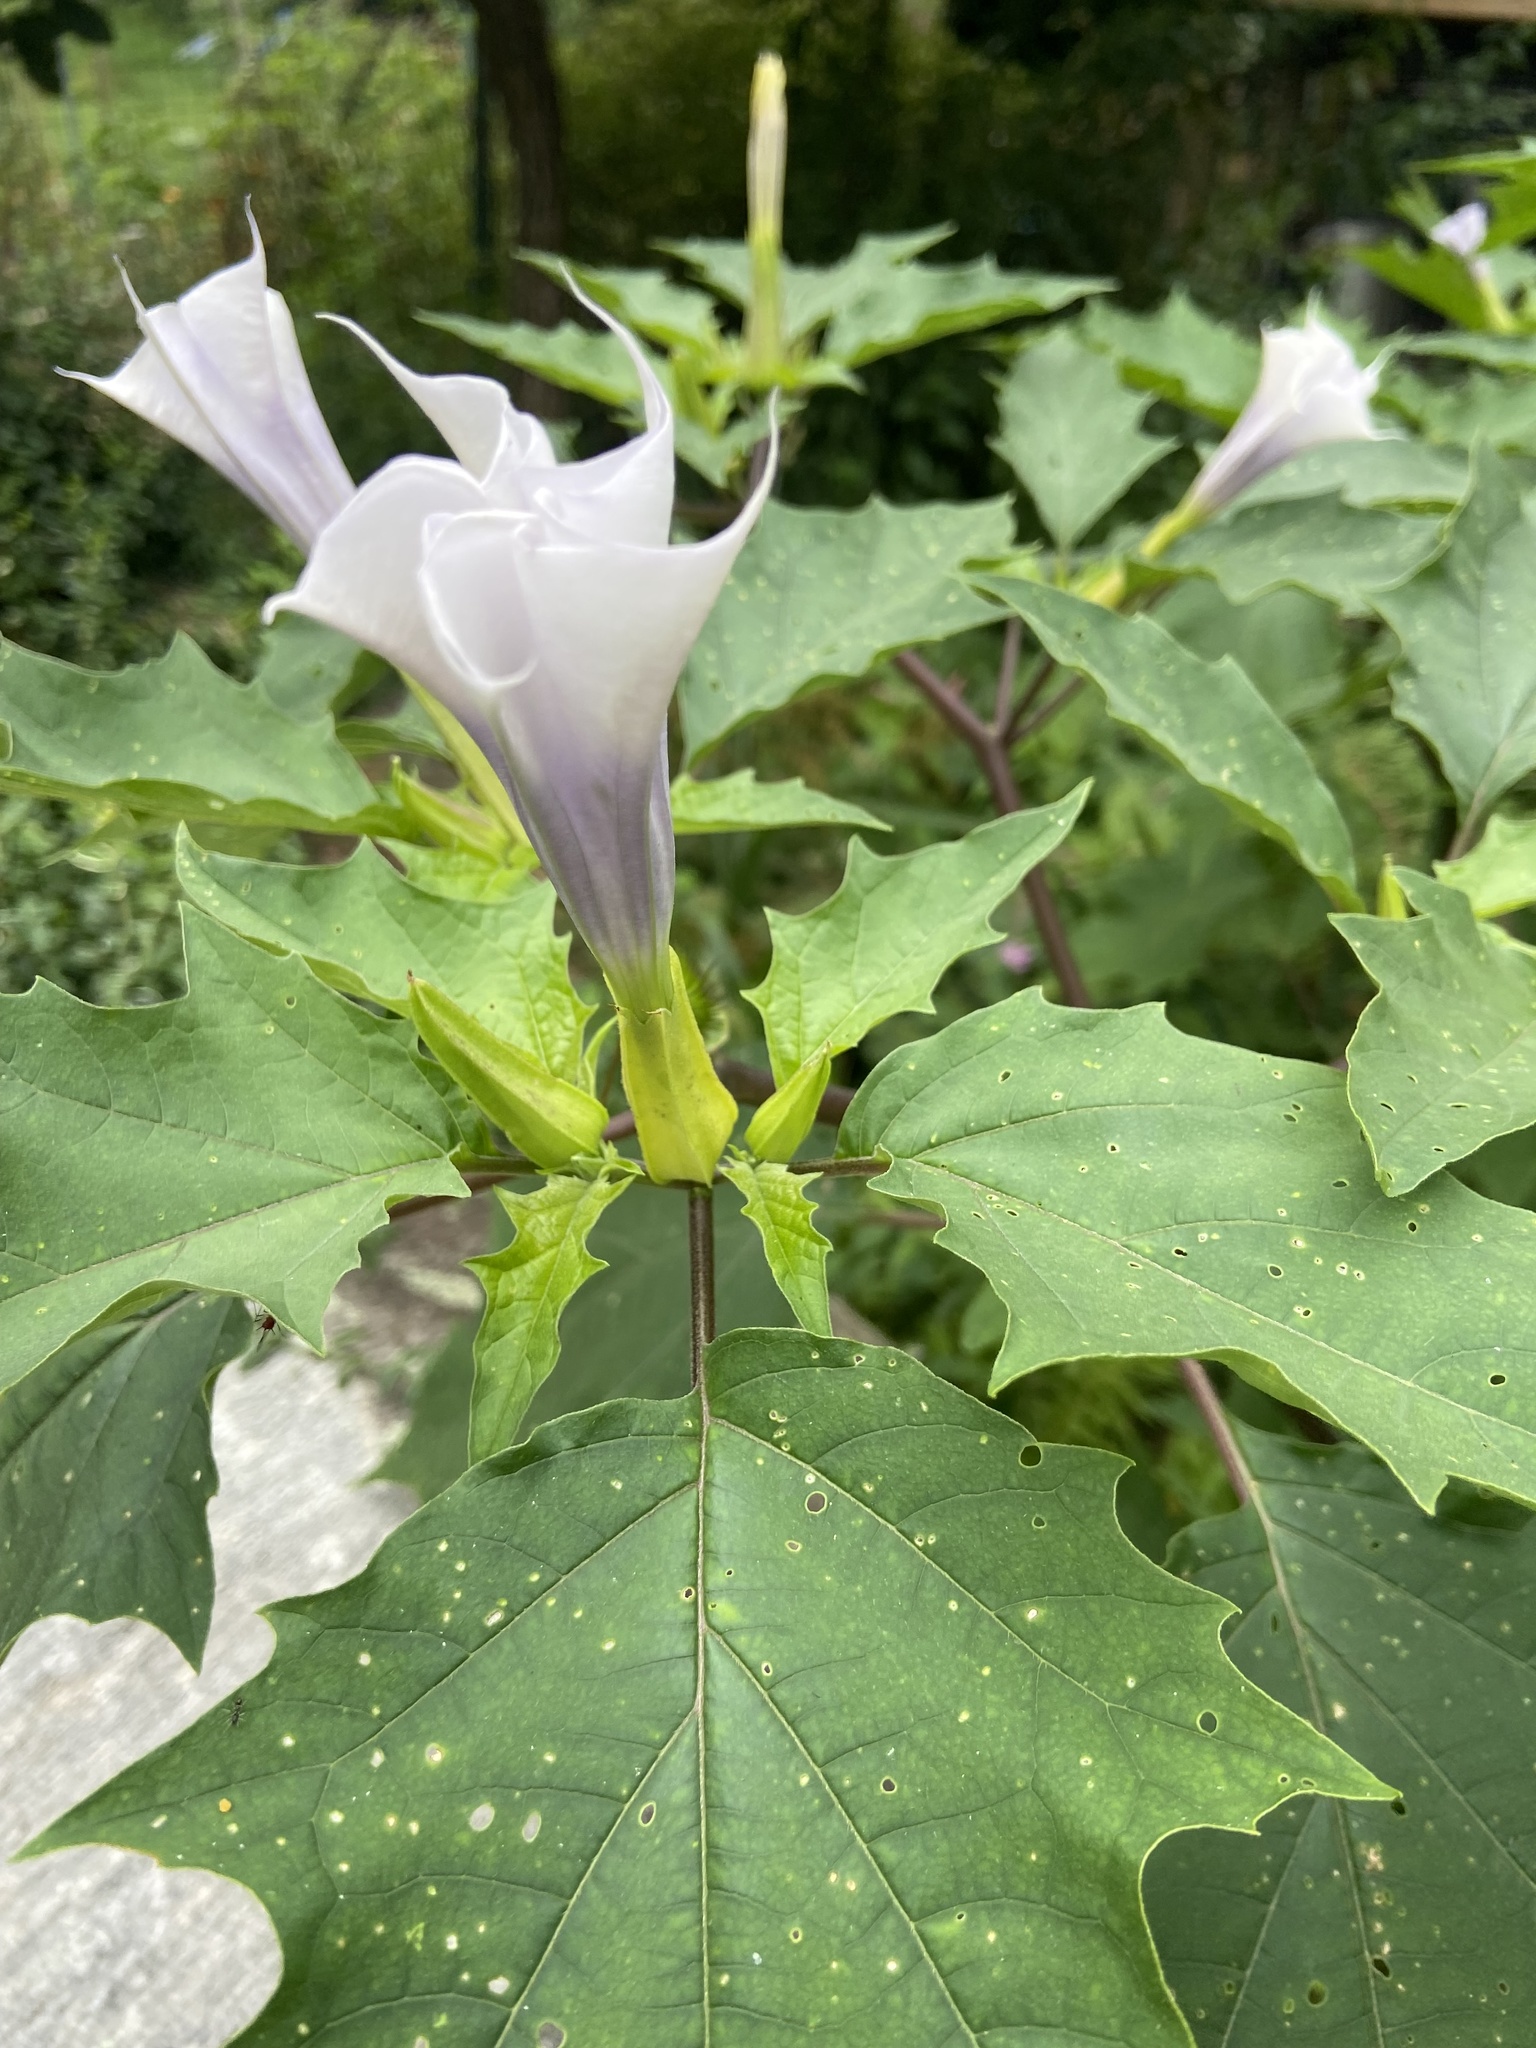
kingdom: Plantae
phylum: Tracheophyta
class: Magnoliopsida
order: Solanales
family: Solanaceae
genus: Datura
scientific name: Datura stramonium
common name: Thorn-apple
